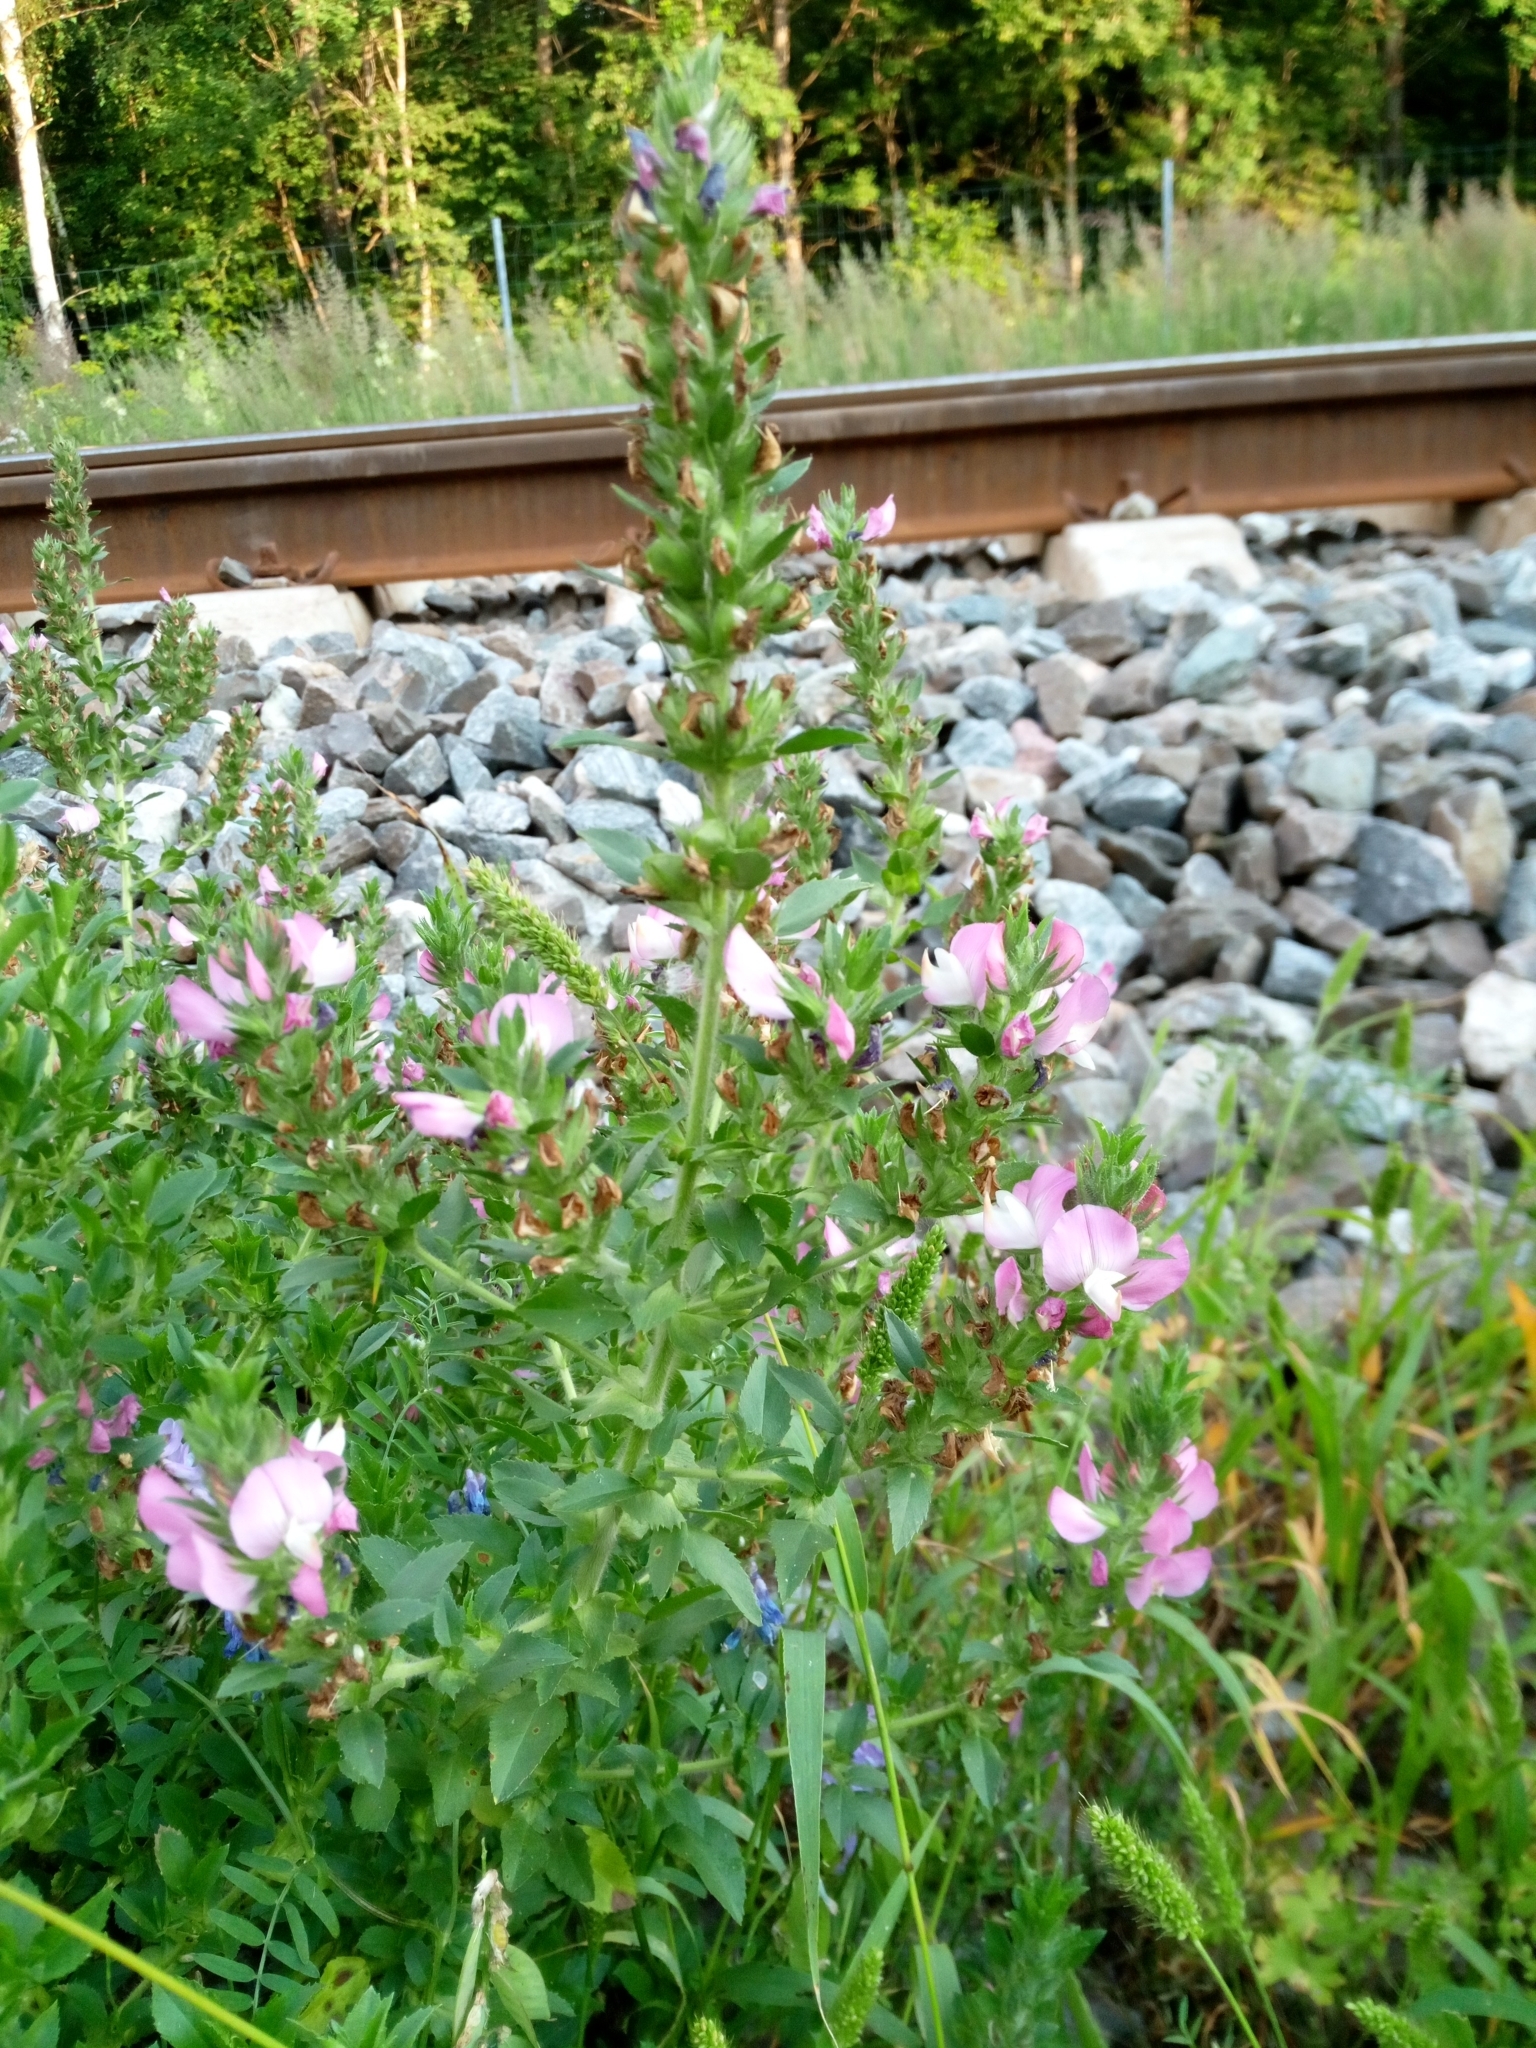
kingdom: Plantae
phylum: Tracheophyta
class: Magnoliopsida
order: Fabales
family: Fabaceae
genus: Ononis
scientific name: Ononis arvensis
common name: Field restharrow
